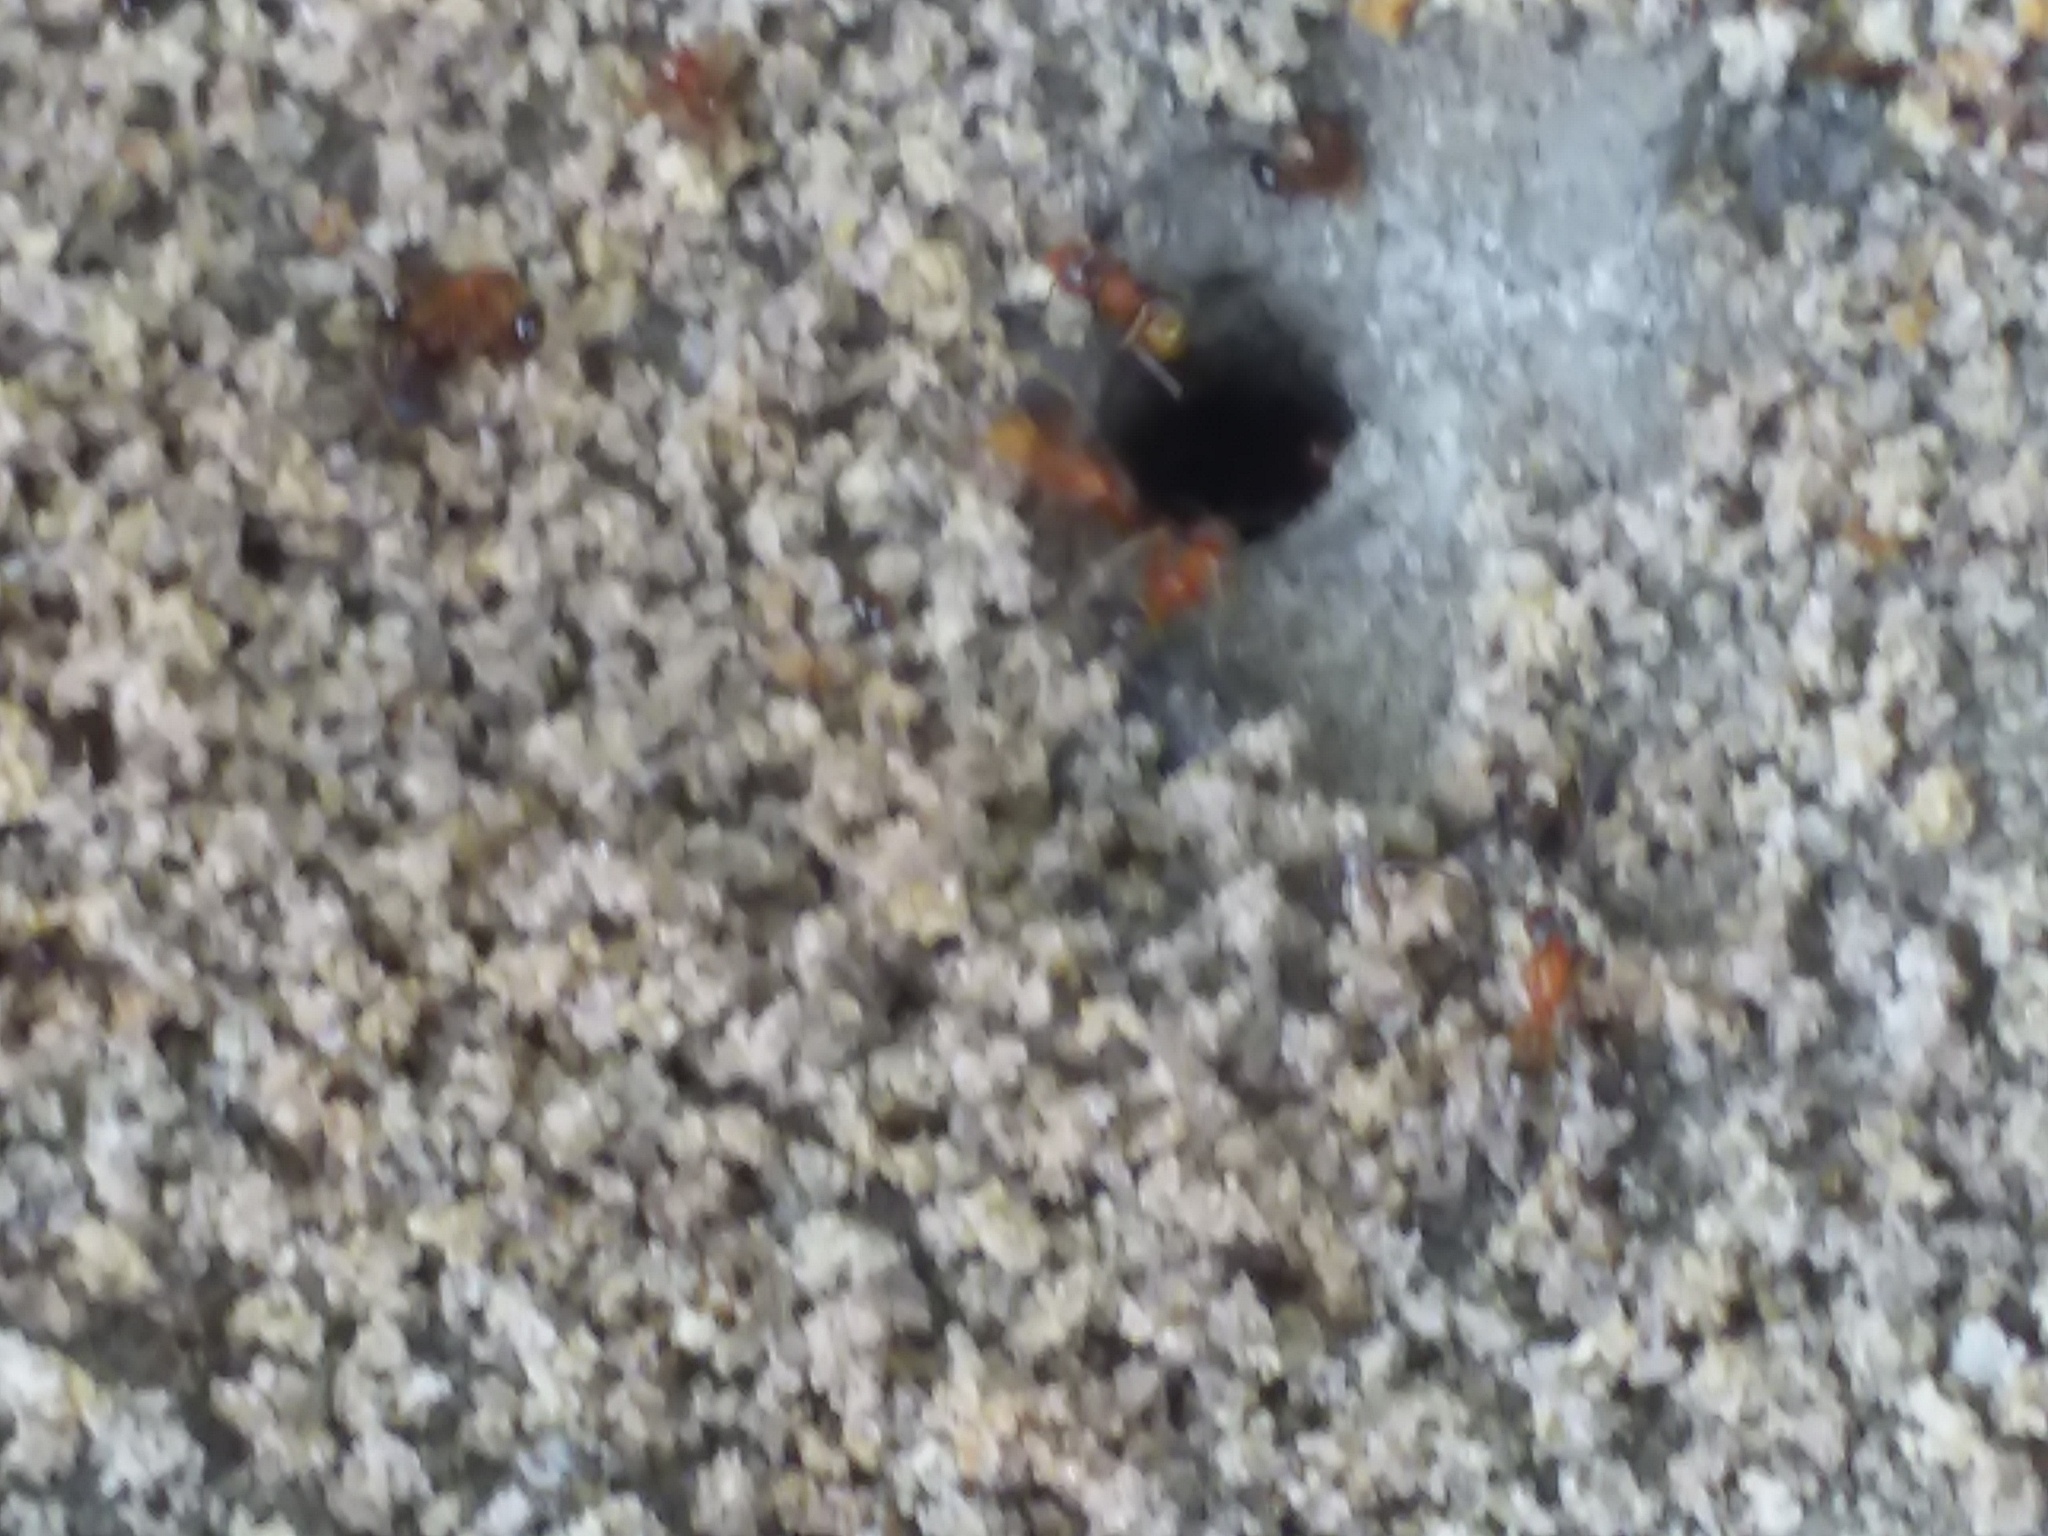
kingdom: Animalia
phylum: Arthropoda
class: Insecta
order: Hymenoptera
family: Formicidae
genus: Dorymyrmex
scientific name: Dorymyrmex bureni
